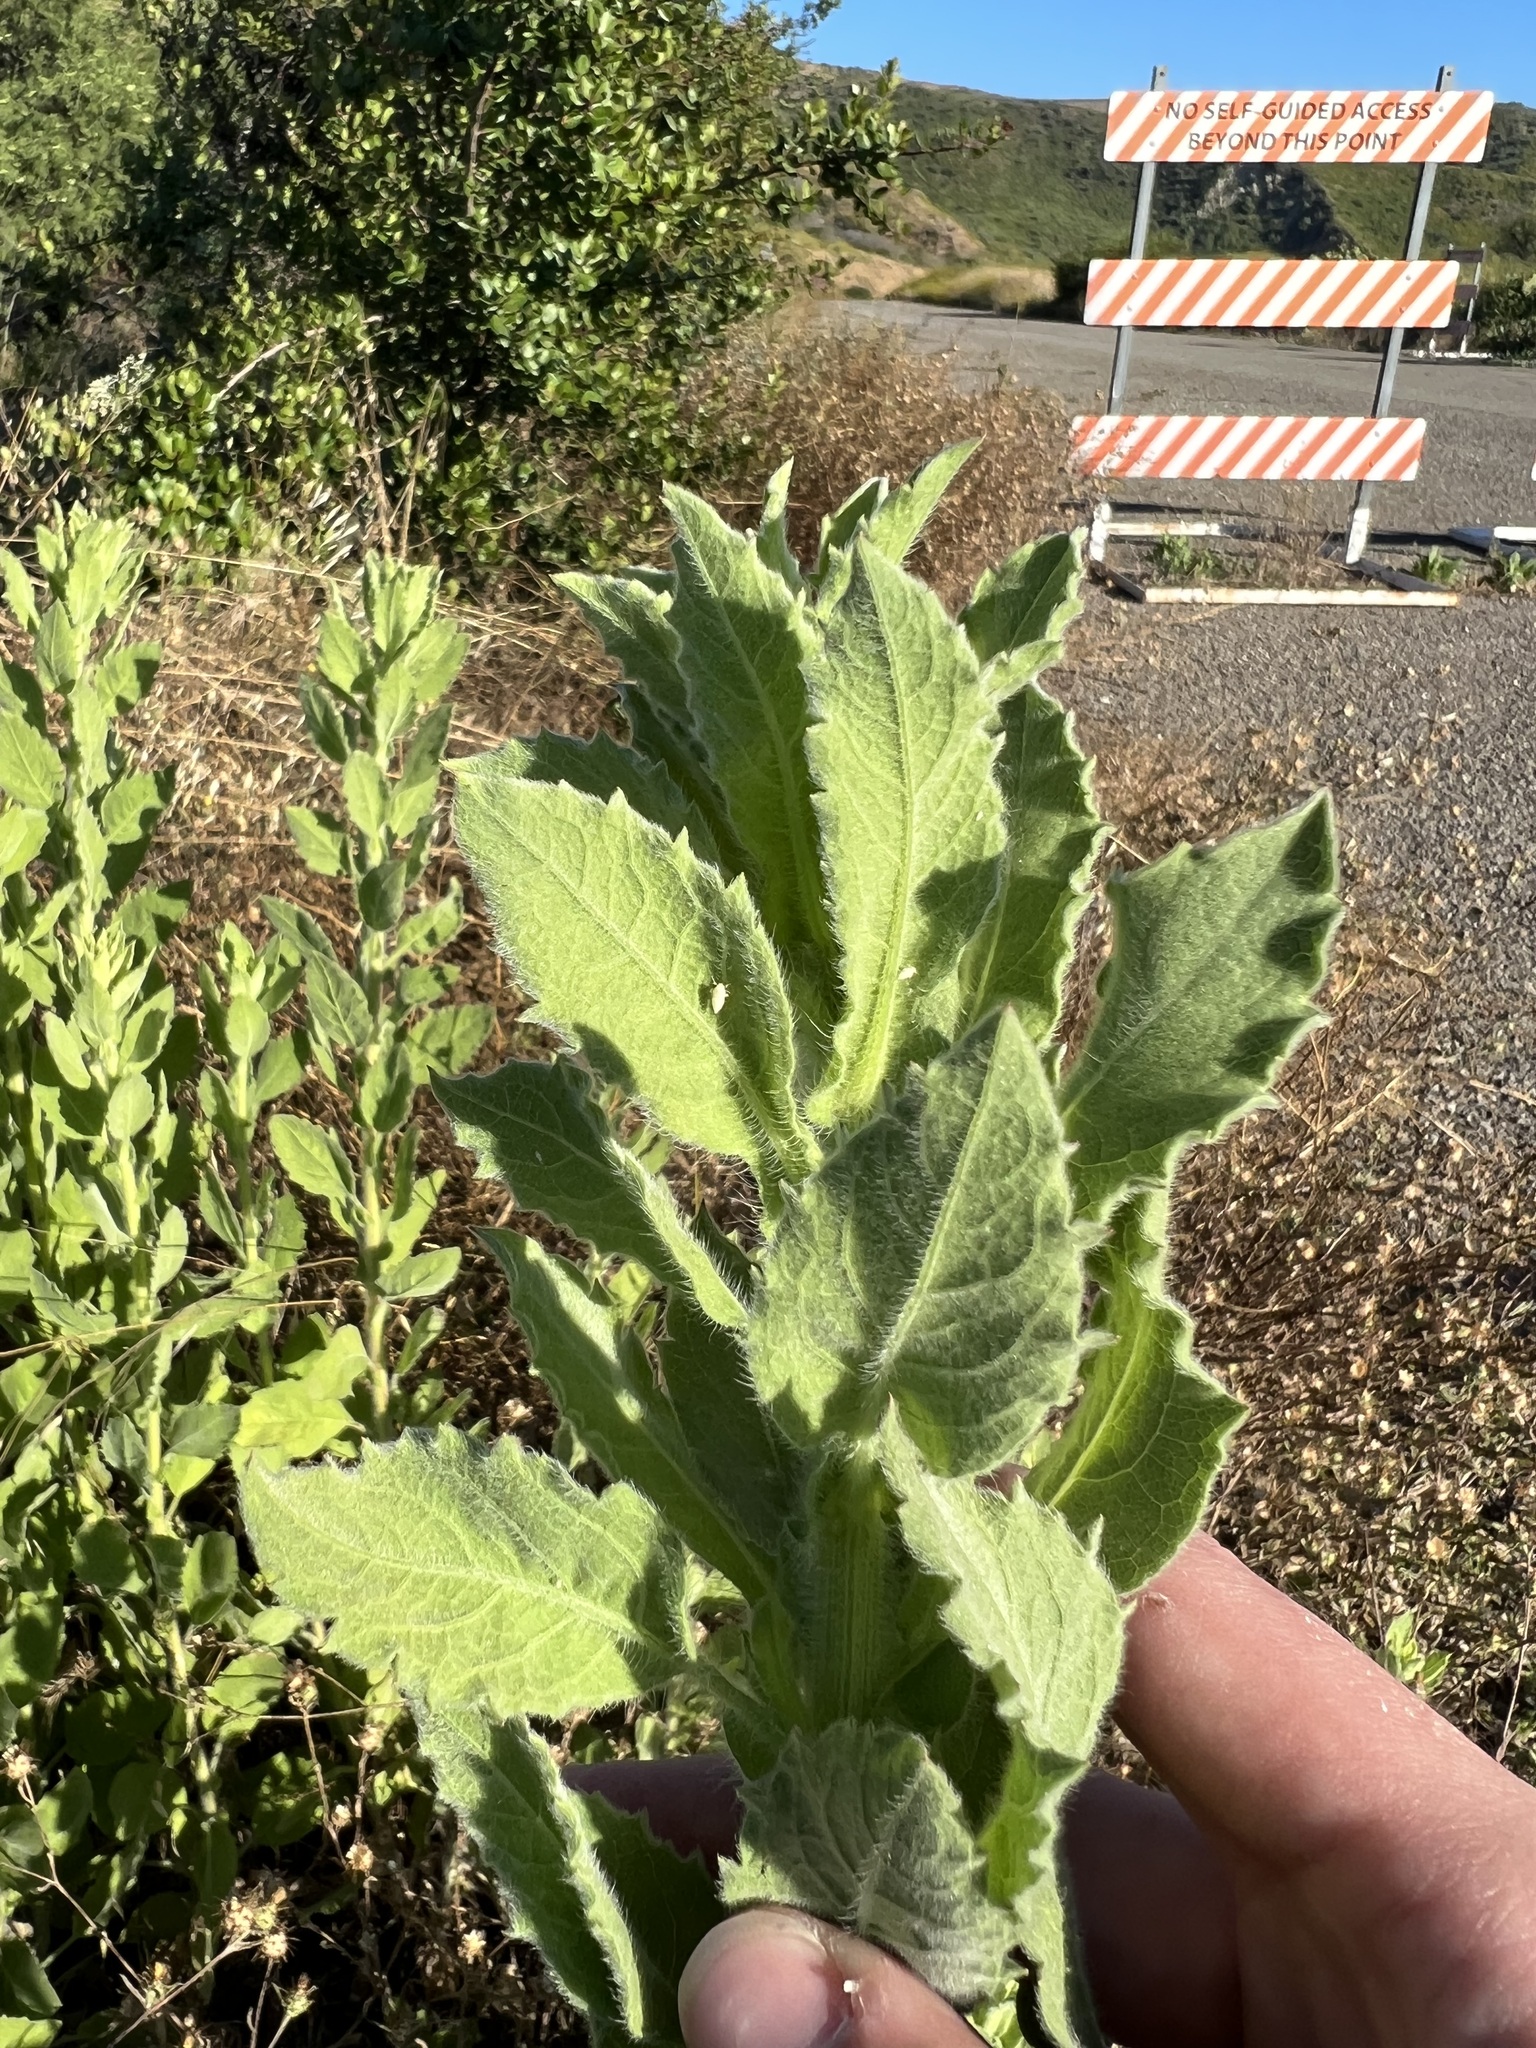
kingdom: Plantae
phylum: Tracheophyta
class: Magnoliopsida
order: Asterales
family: Asteraceae
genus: Heterotheca
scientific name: Heterotheca grandiflora
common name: Telegraphweed
